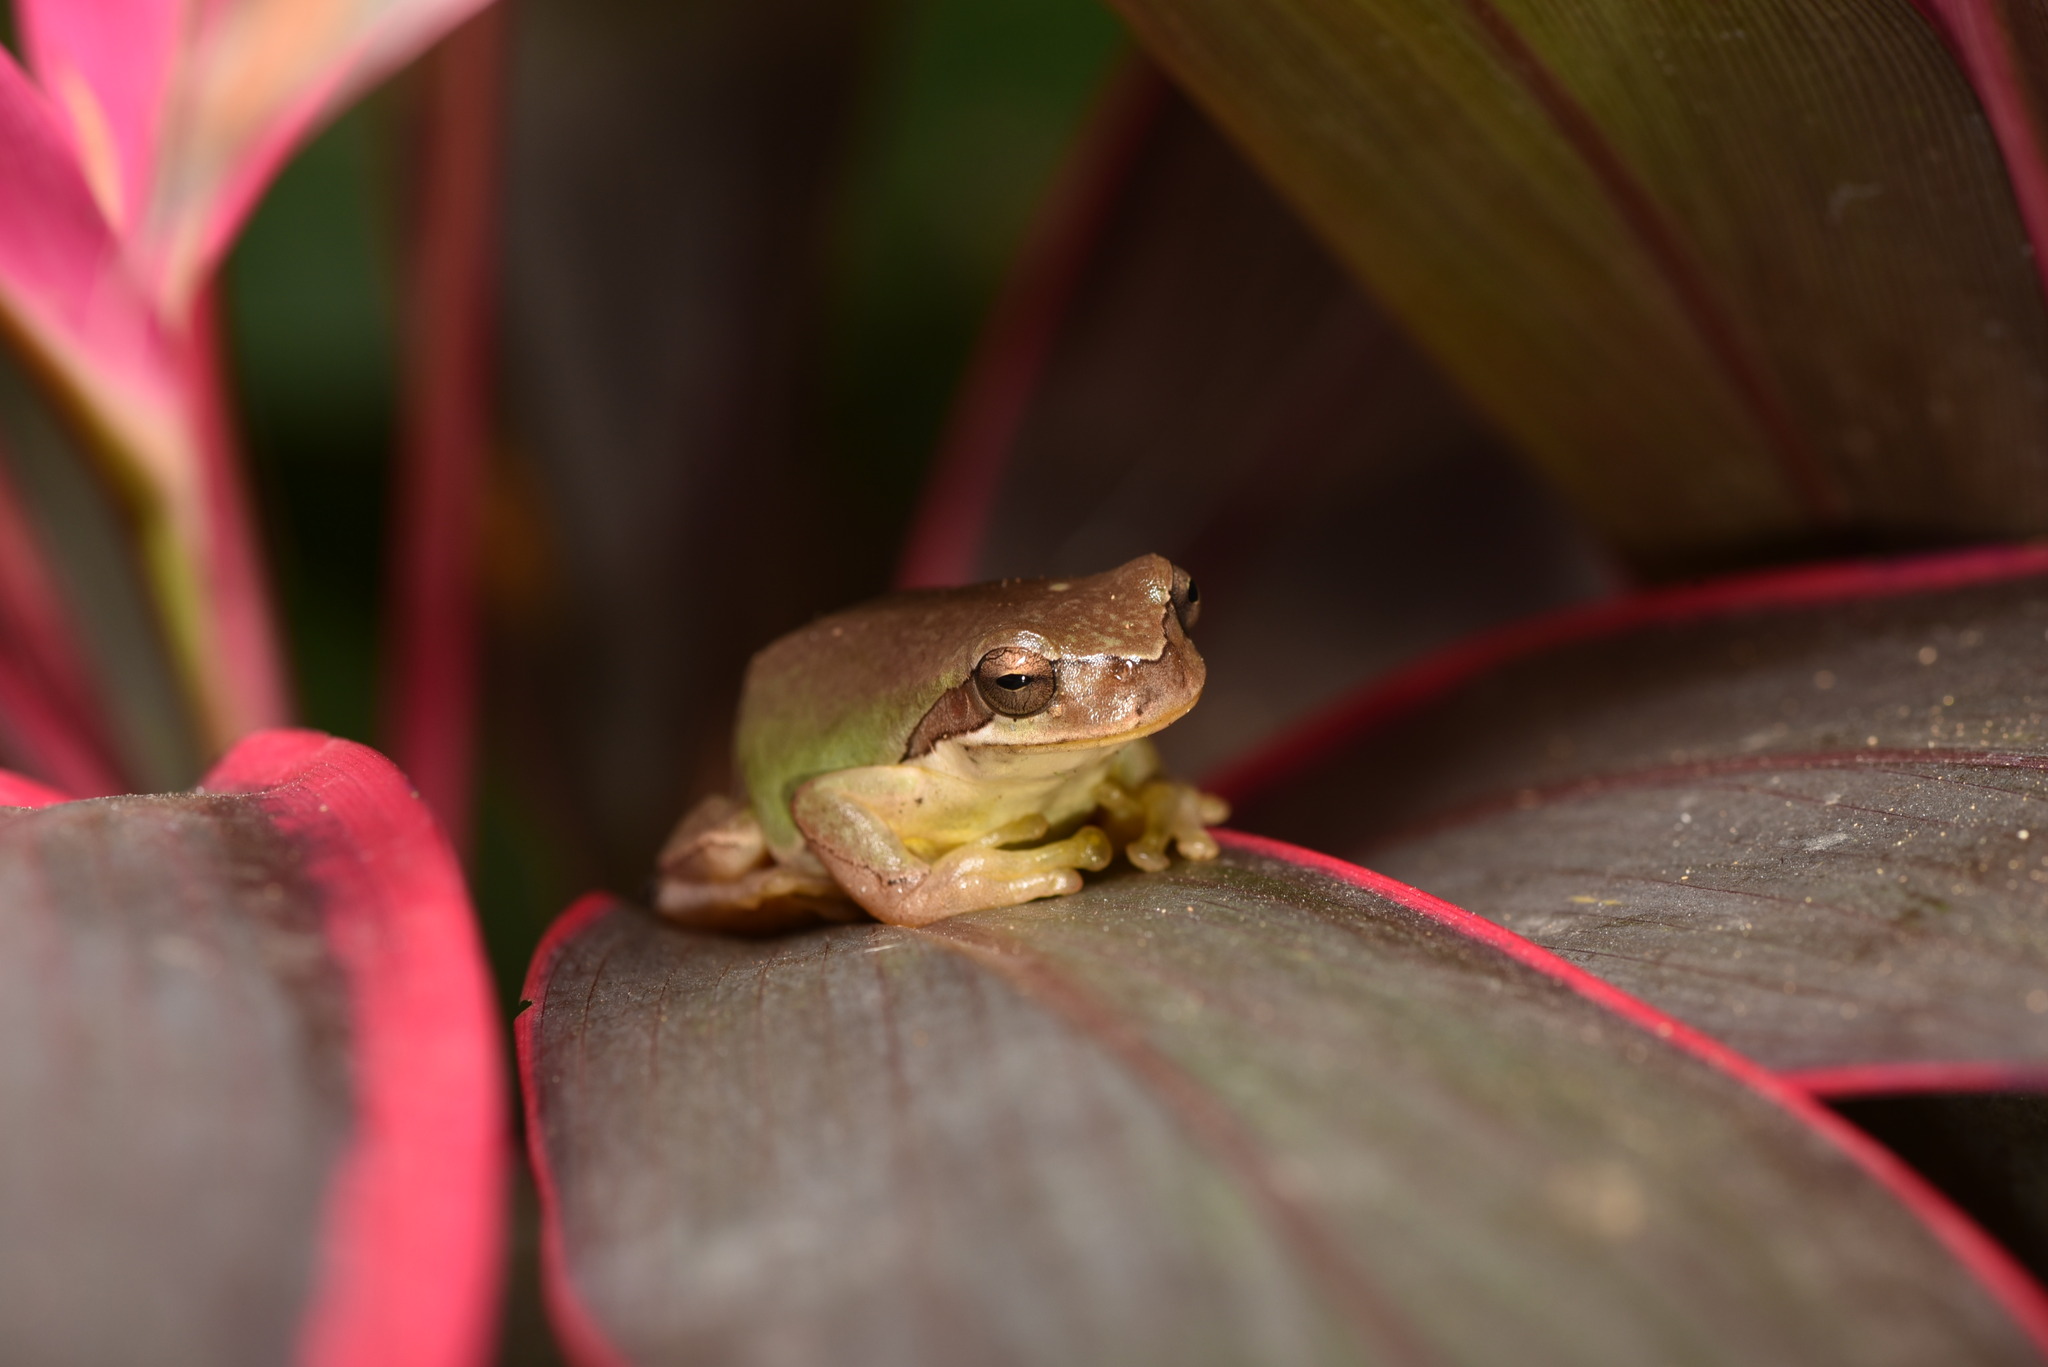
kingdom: Animalia
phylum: Chordata
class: Amphibia
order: Anura
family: Hylidae
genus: Hyla
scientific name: Hyla chinensis
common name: Common chinese treefrog
